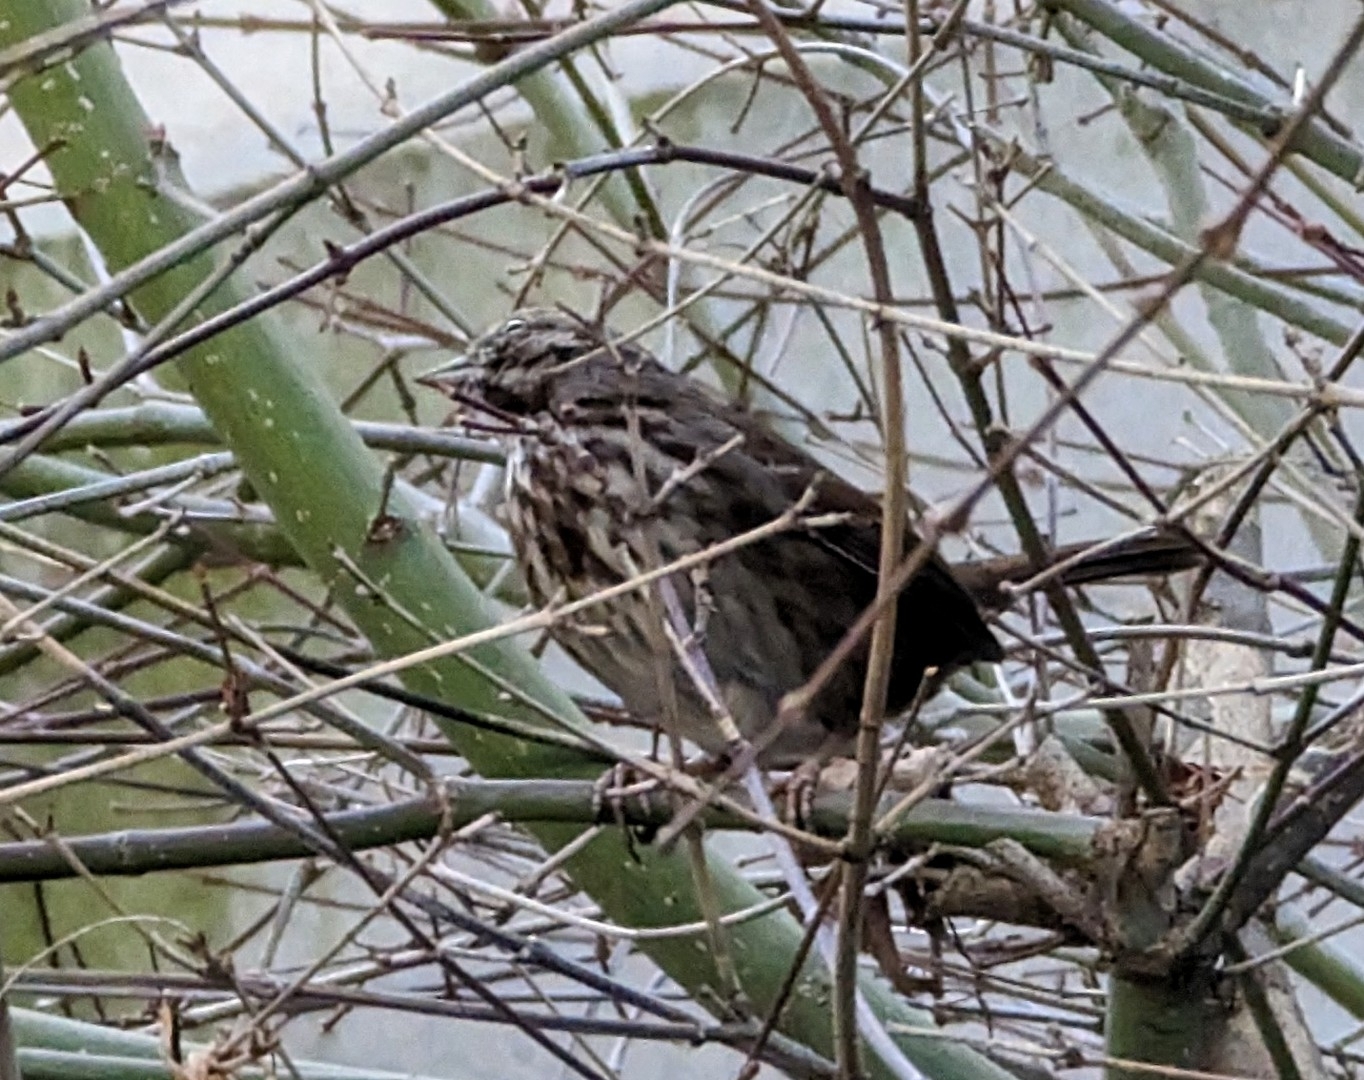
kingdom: Animalia
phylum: Chordata
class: Aves
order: Passeriformes
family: Passerellidae
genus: Melospiza
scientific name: Melospiza melodia
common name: Song sparrow
